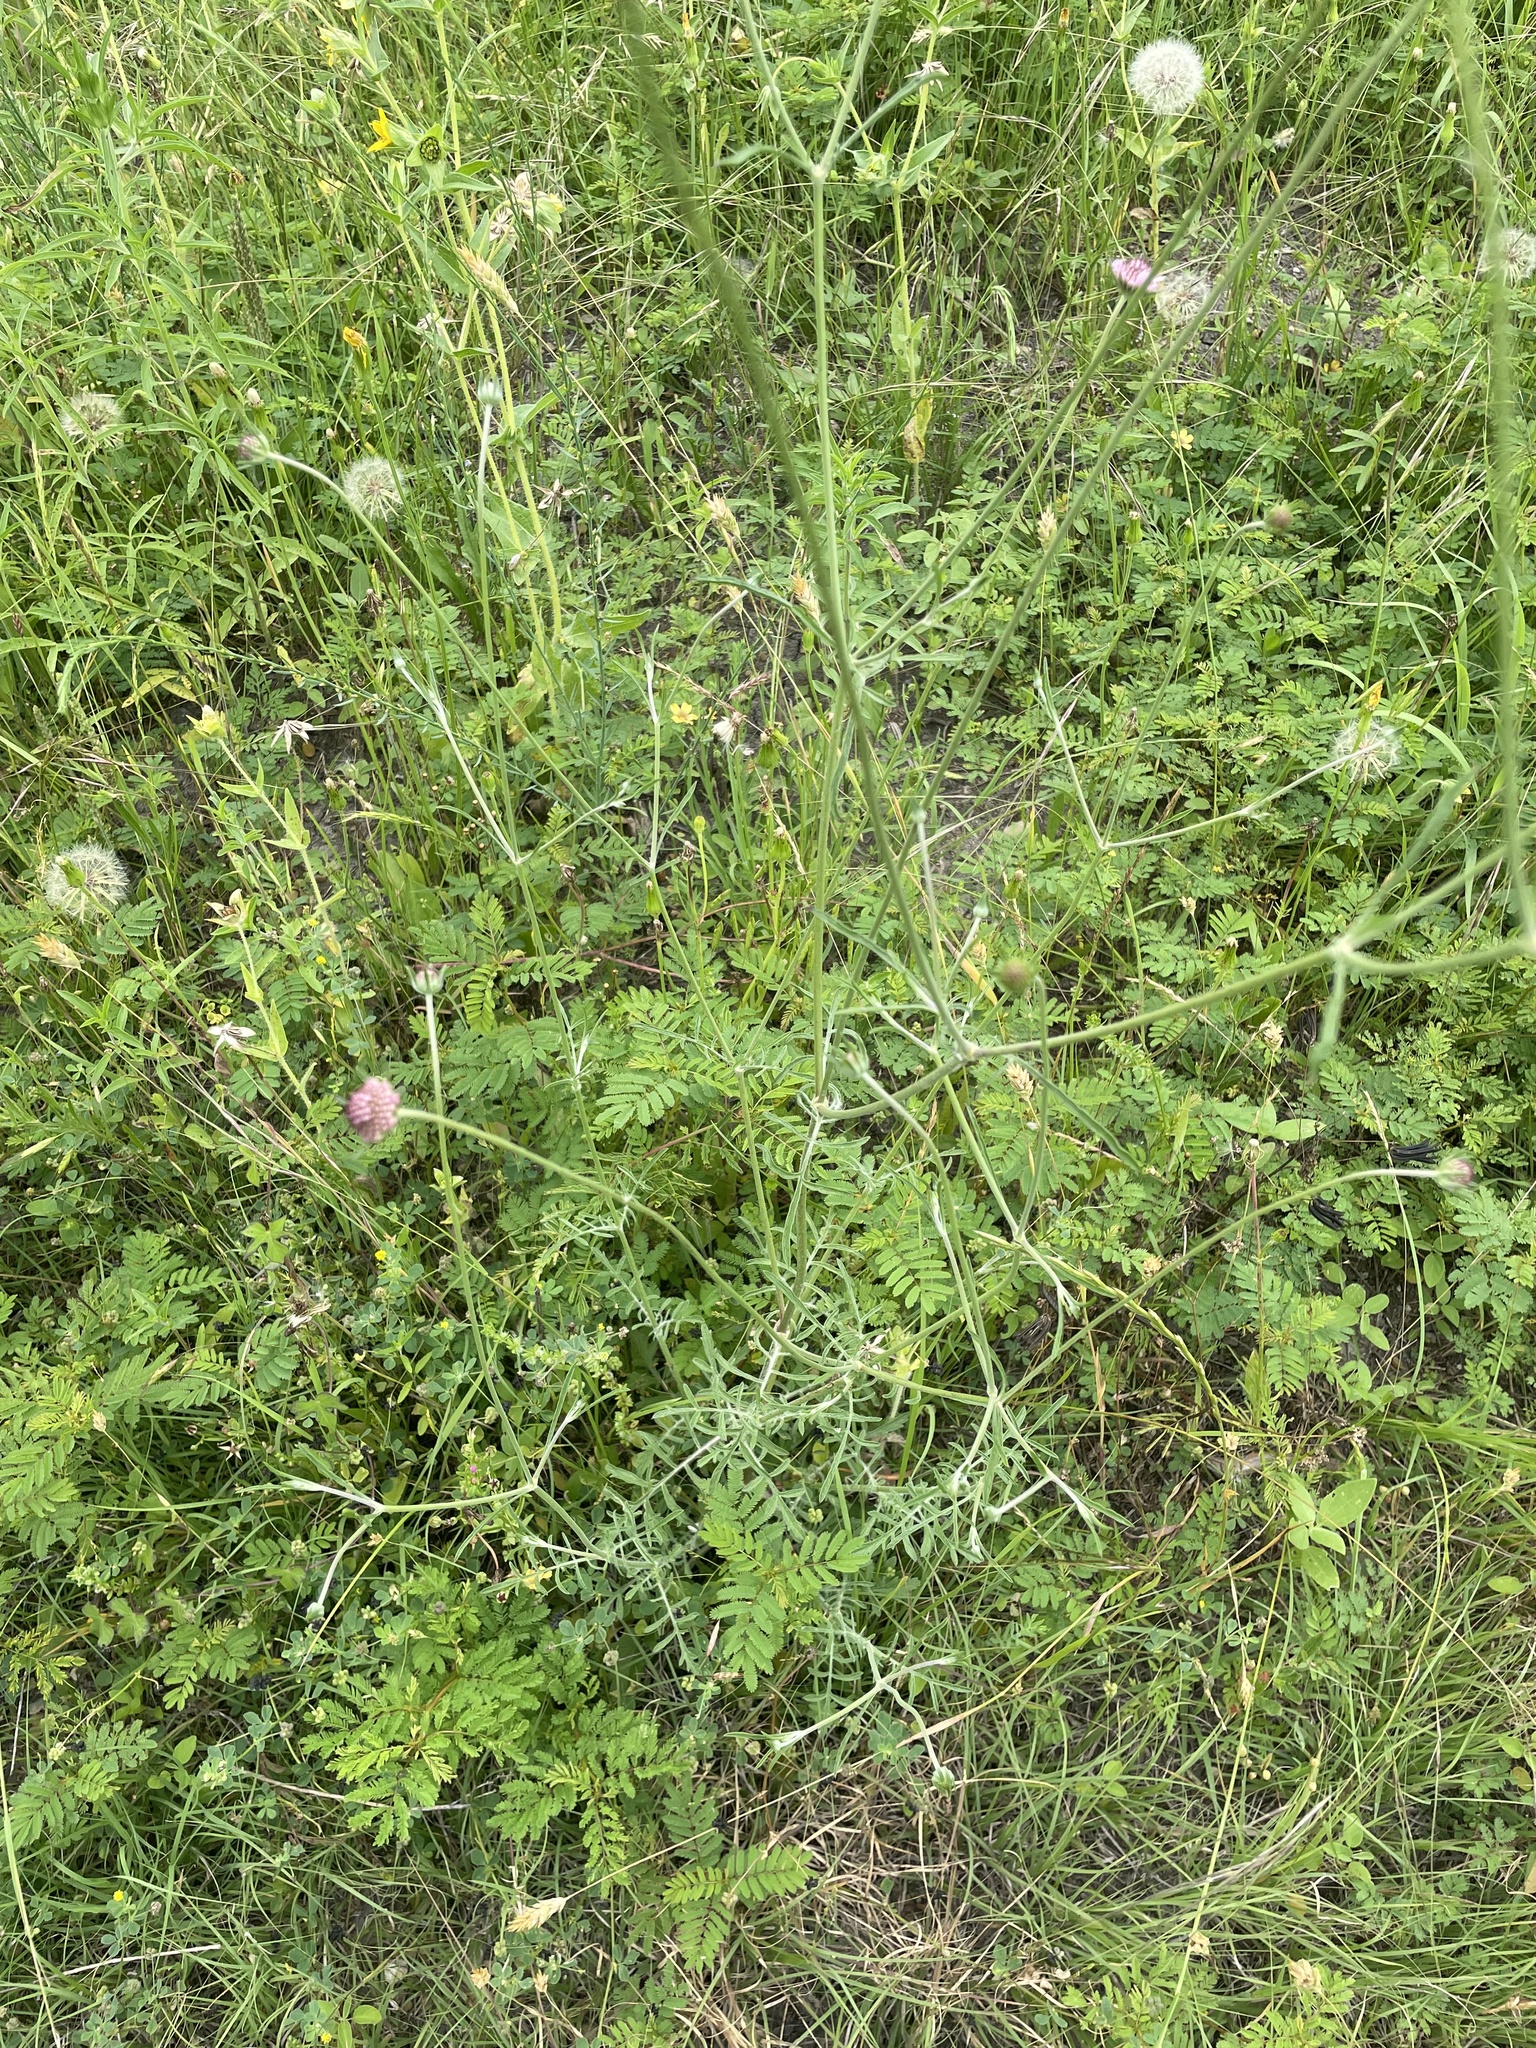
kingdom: Plantae
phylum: Tracheophyta
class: Magnoliopsida
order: Dipsacales
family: Caprifoliaceae
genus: Sixalix
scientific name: Sixalix atropurpurea
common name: Sweet scabious
